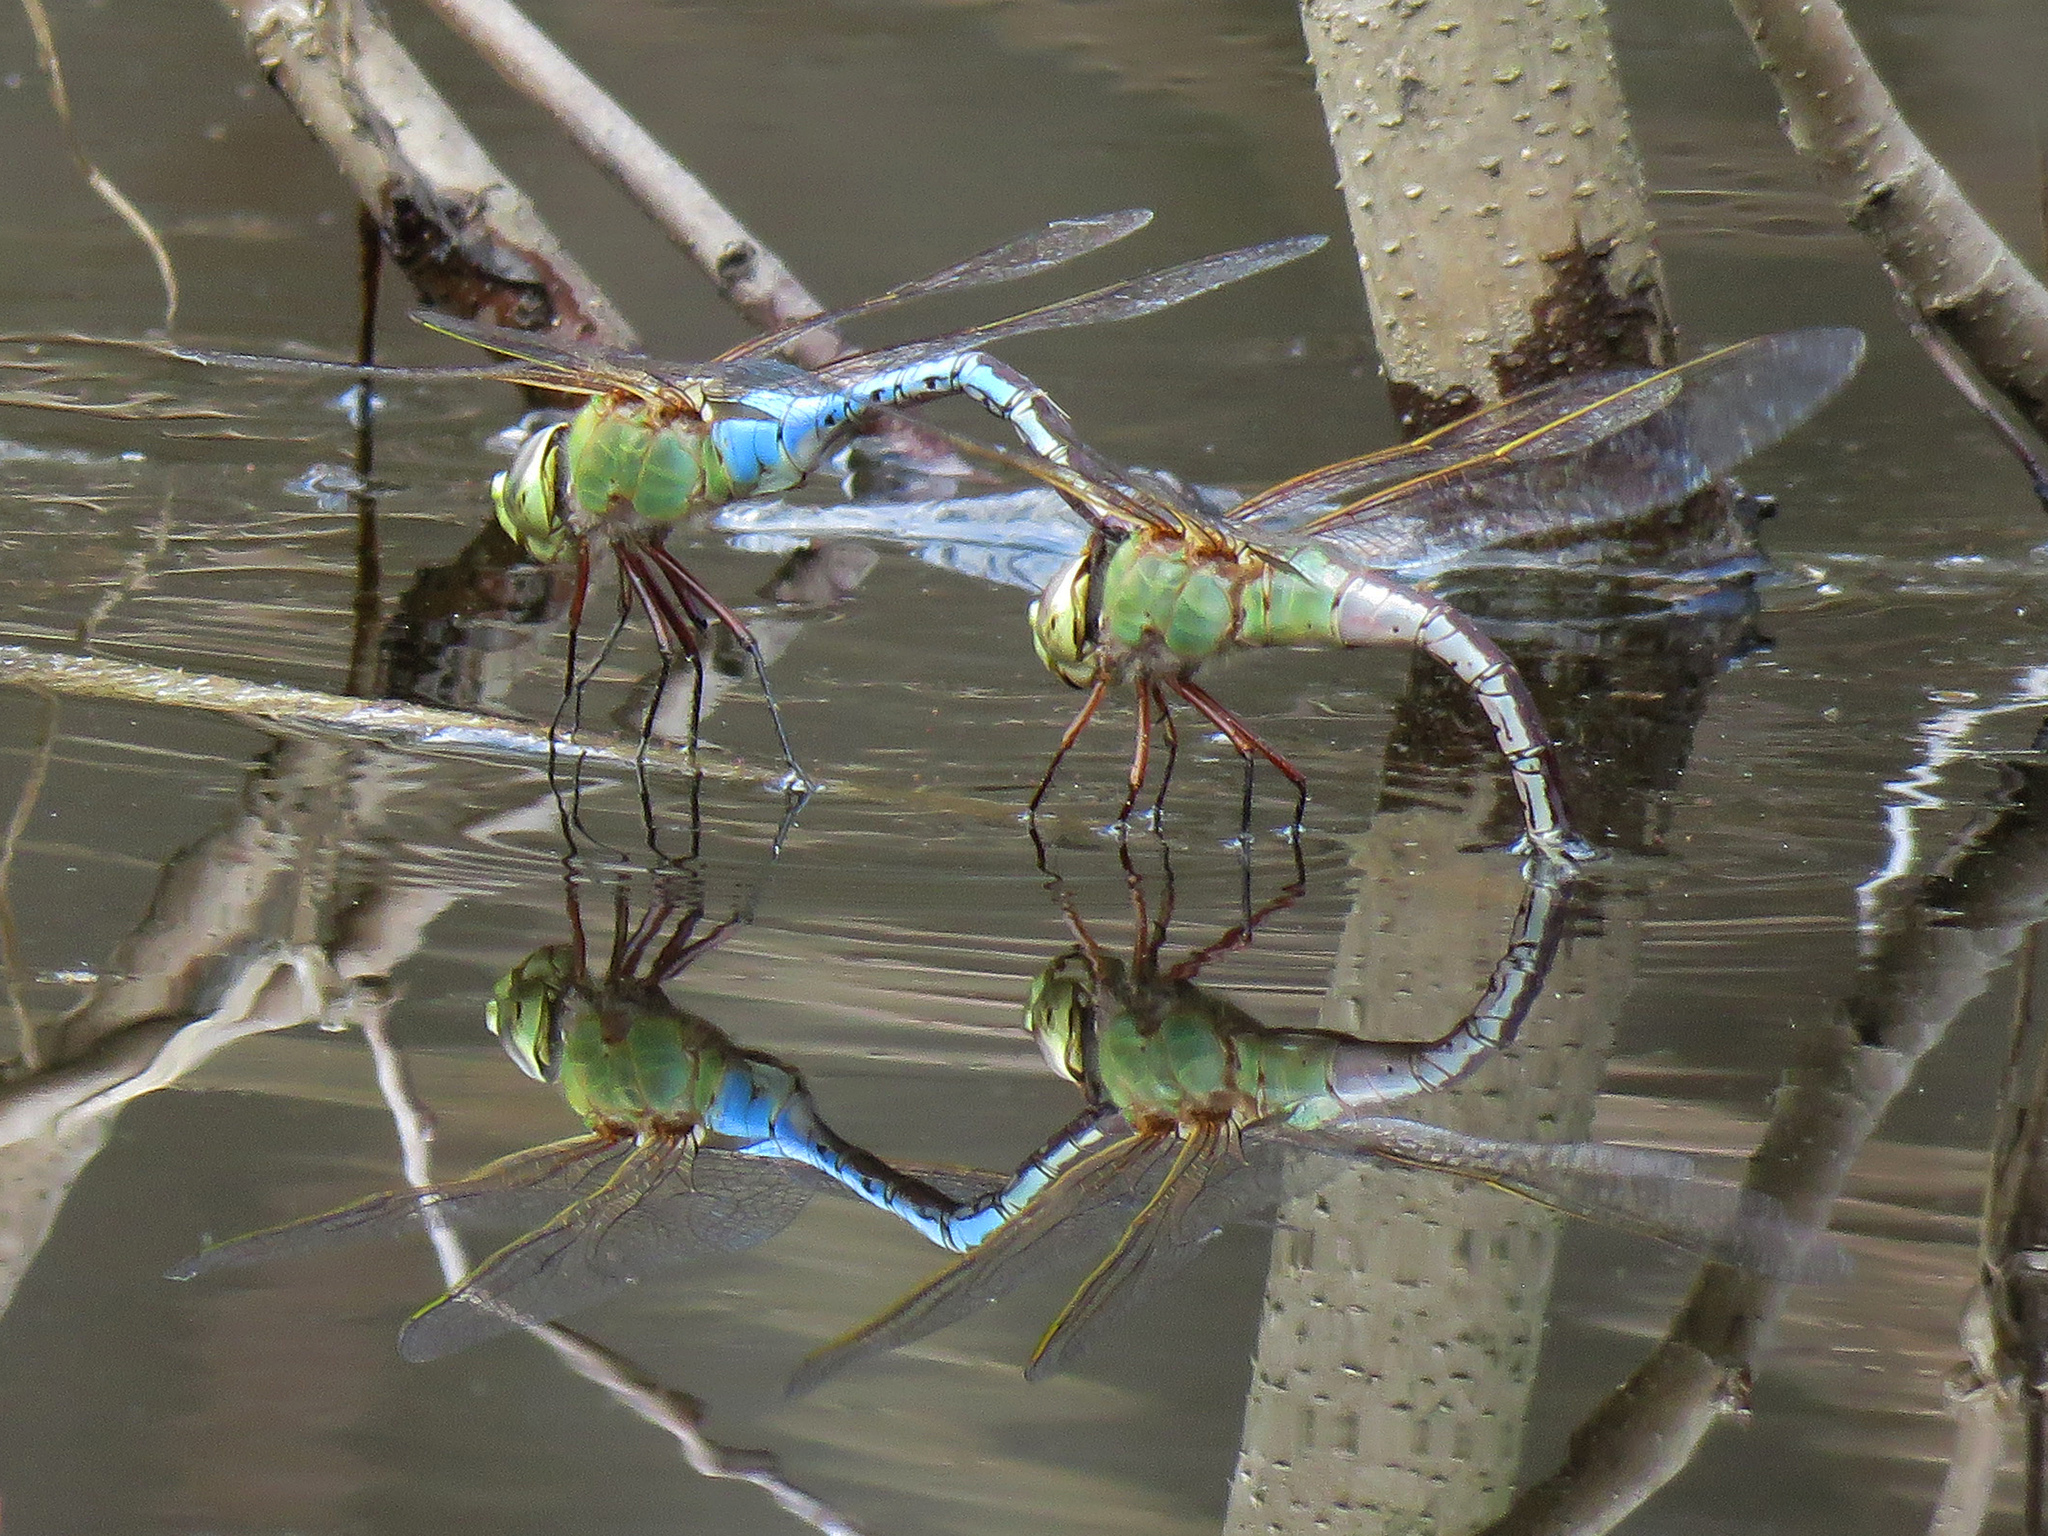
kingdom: Animalia
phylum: Arthropoda
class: Insecta
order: Odonata
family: Aeshnidae
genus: Anax
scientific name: Anax junius
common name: Common green darner
